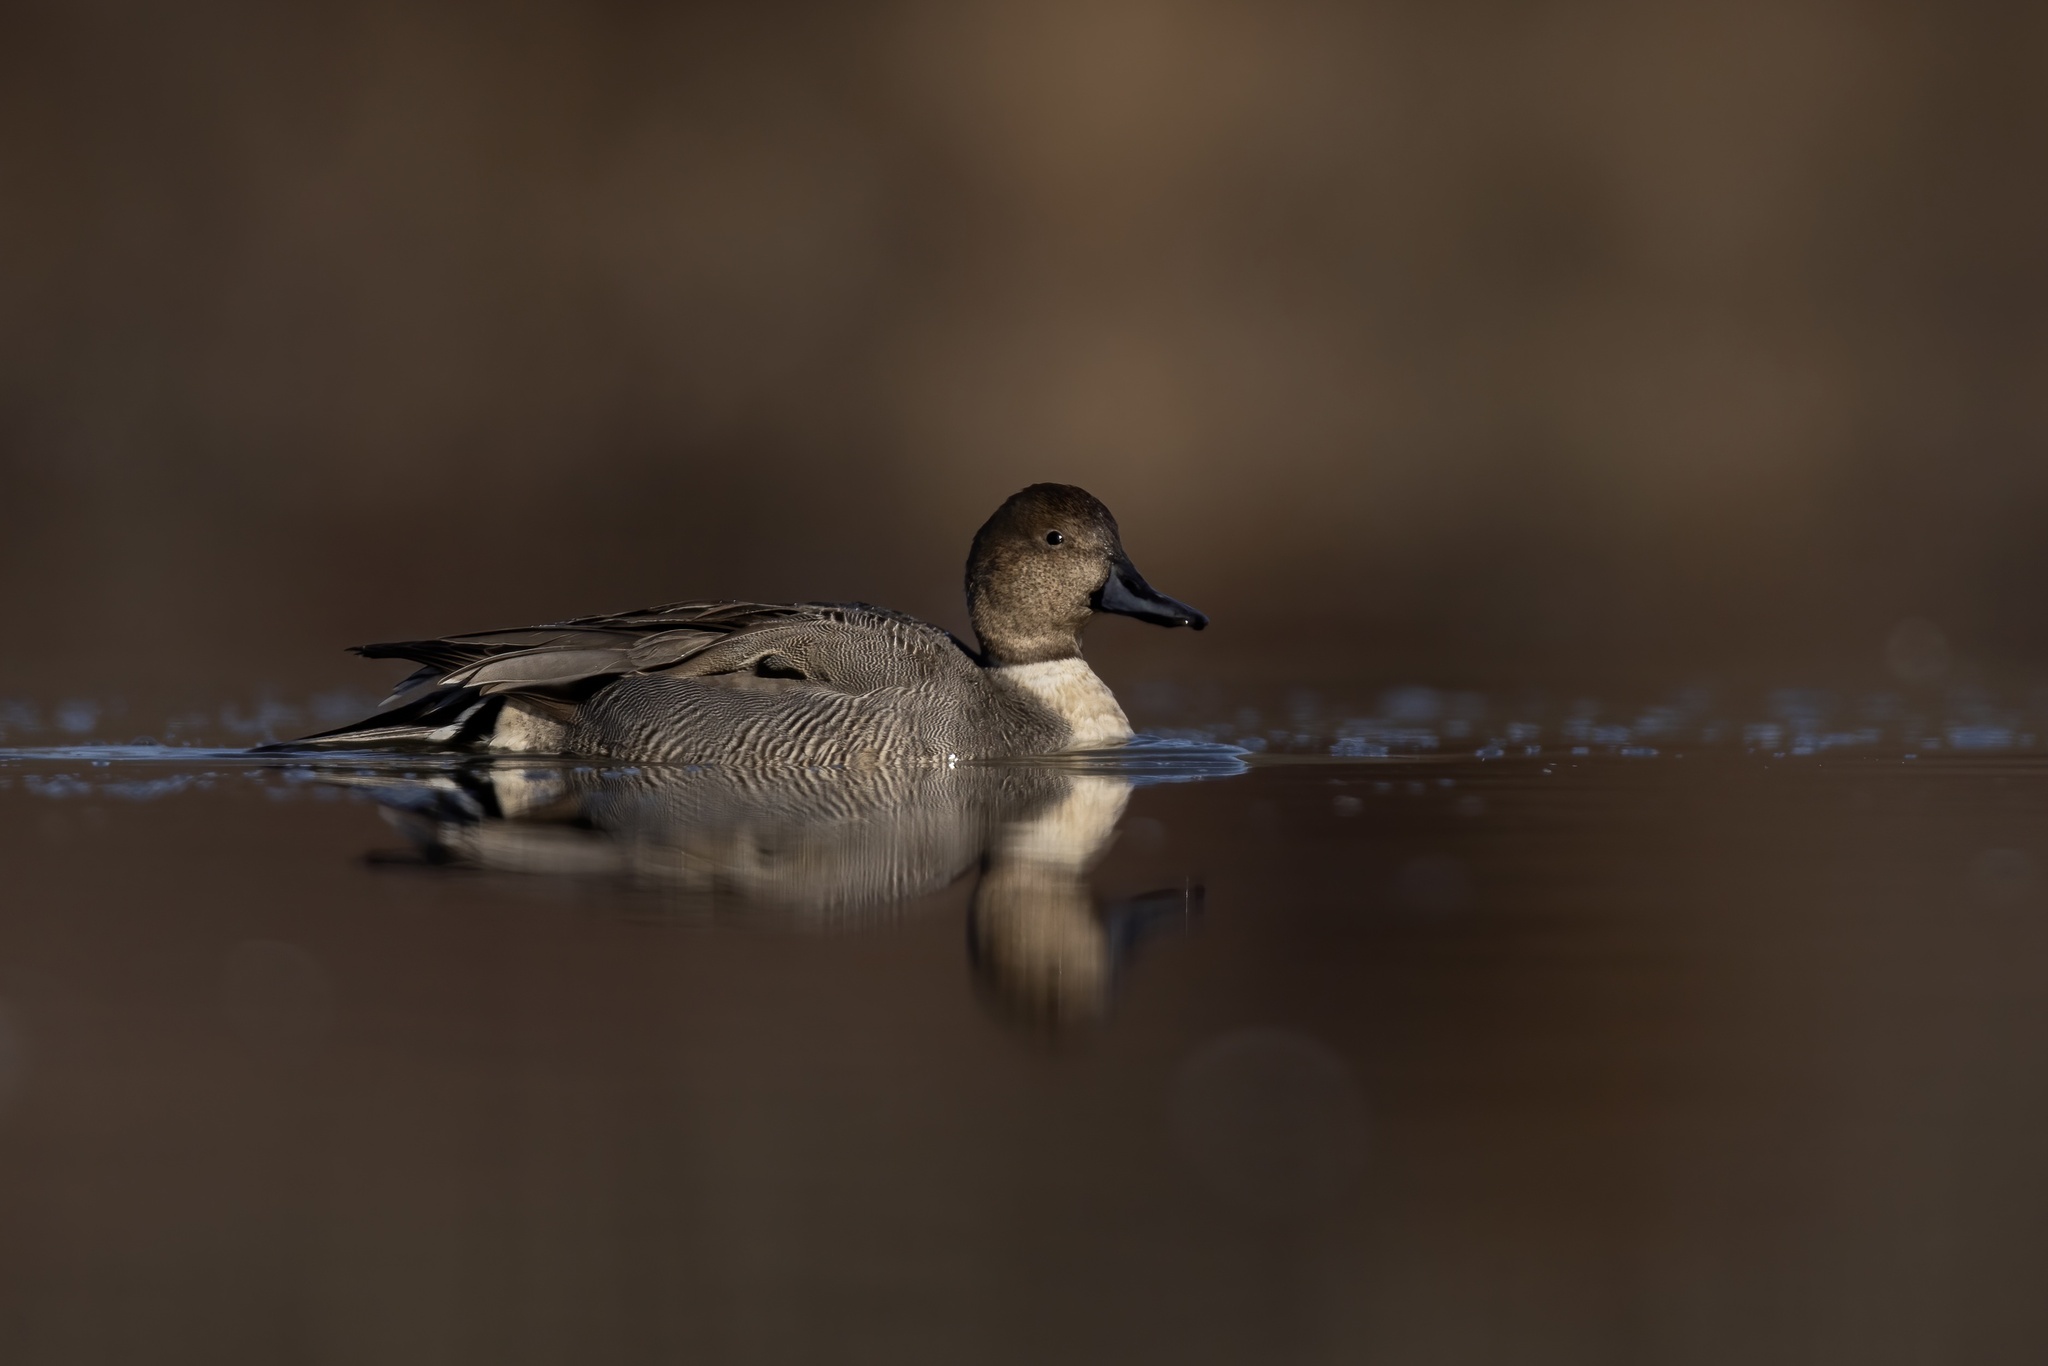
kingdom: Animalia
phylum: Chordata
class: Aves
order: Anseriformes
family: Anatidae
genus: Anas
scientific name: Anas acuta
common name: Northern pintail
